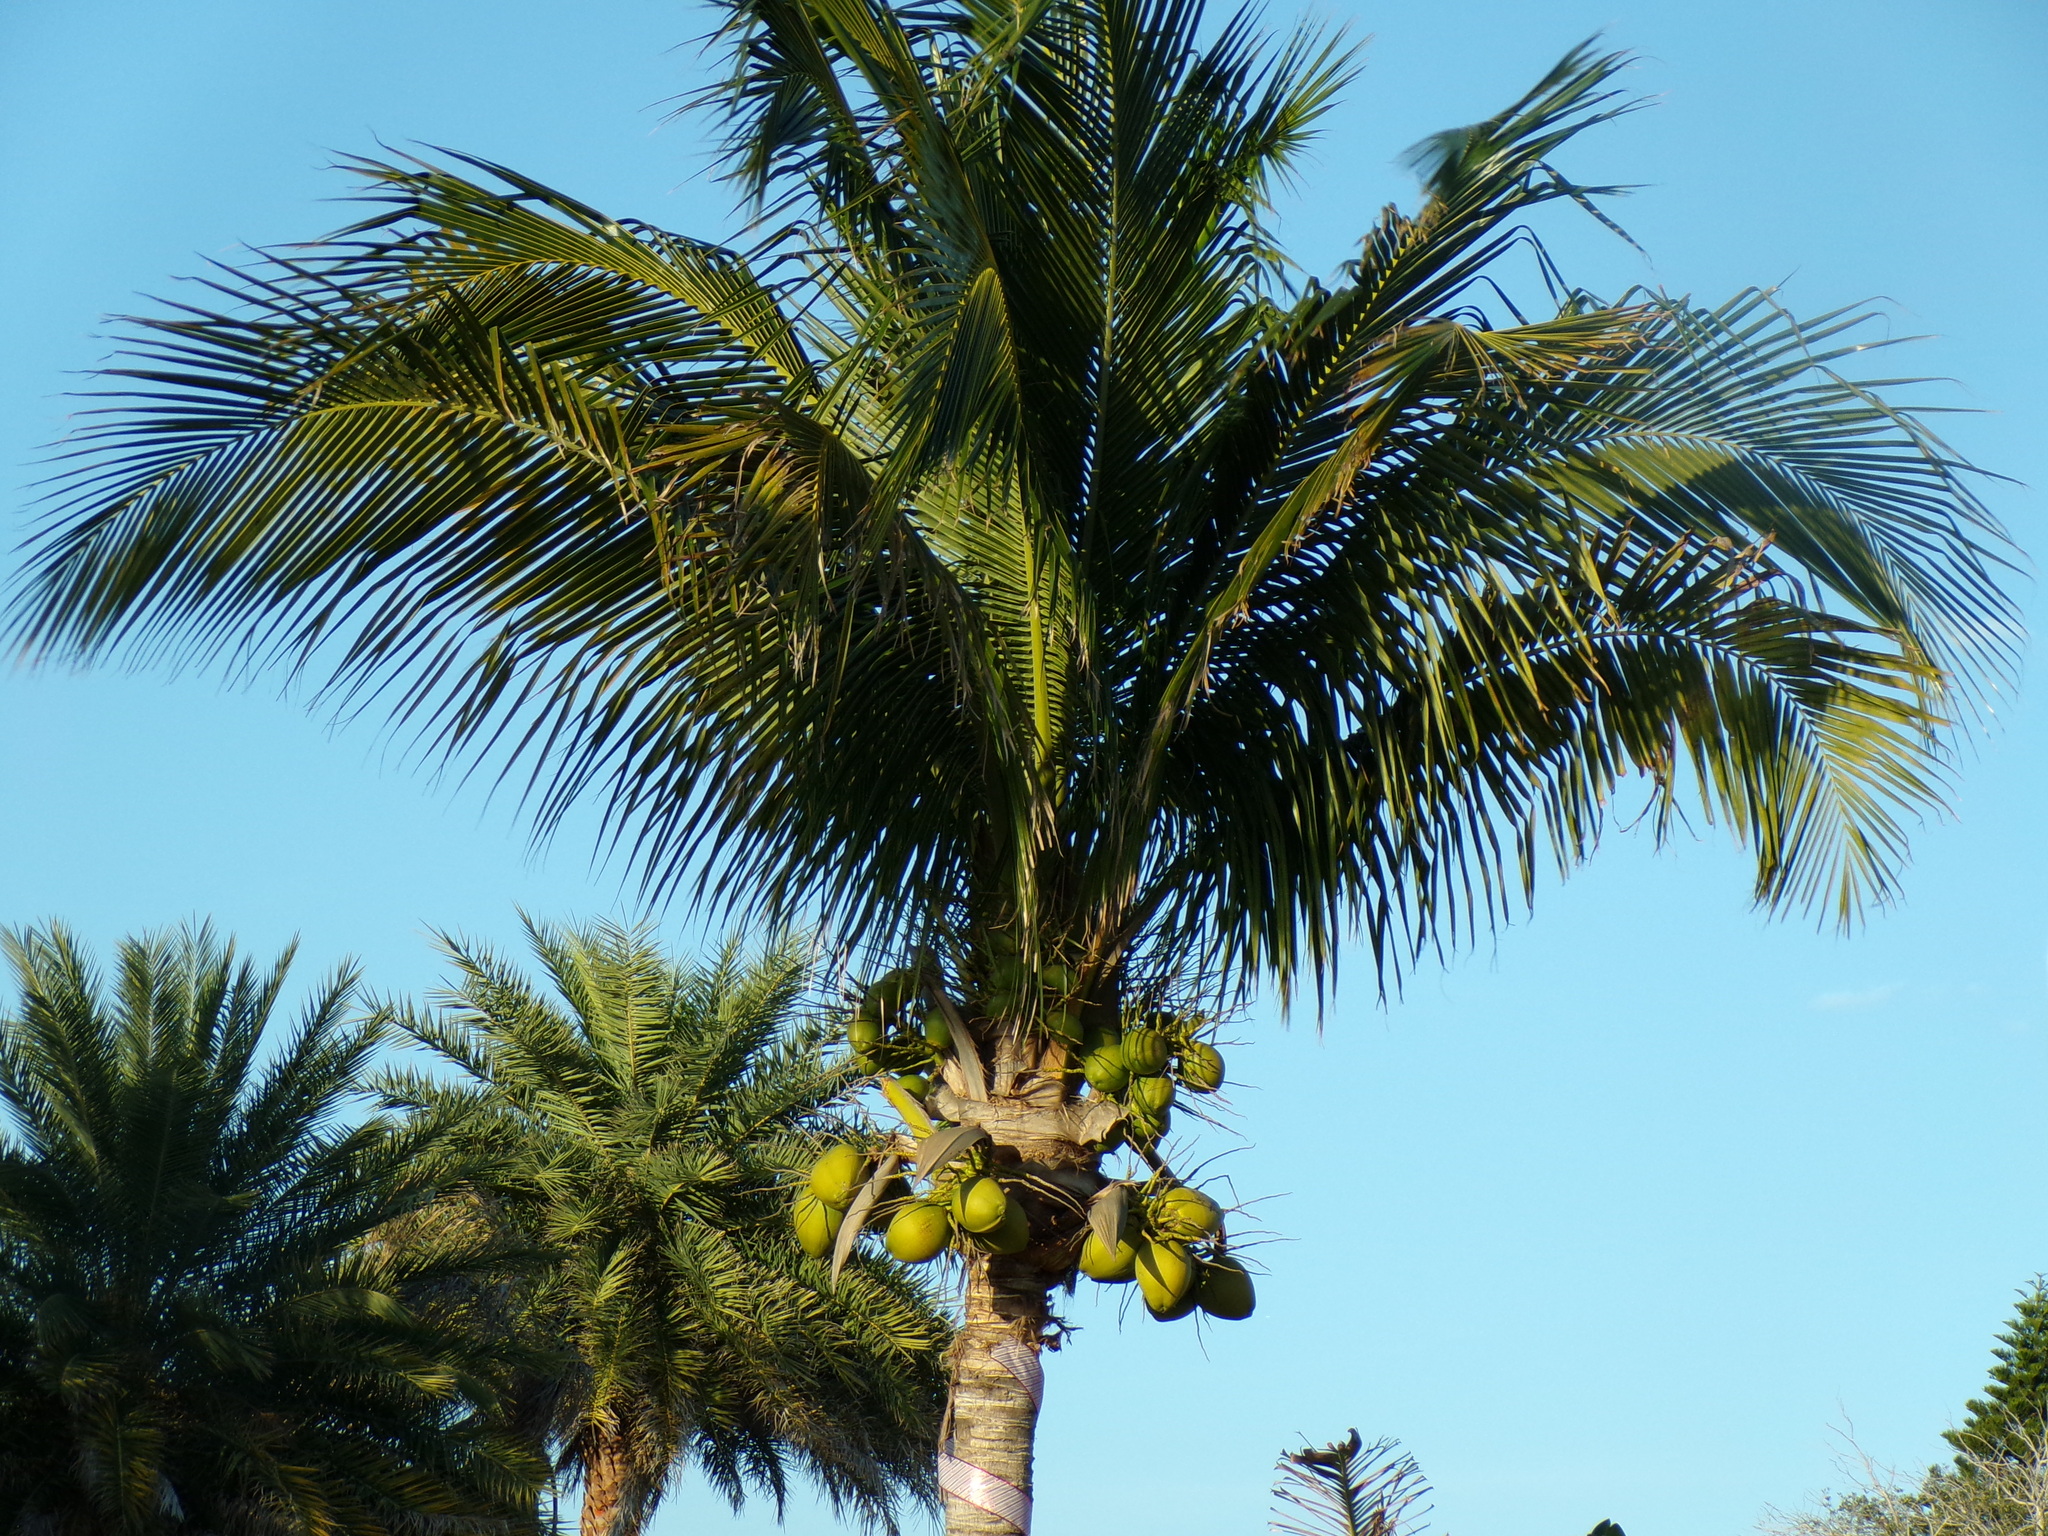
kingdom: Plantae
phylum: Tracheophyta
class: Liliopsida
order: Arecales
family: Arecaceae
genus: Cocos
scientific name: Cocos nucifera
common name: Coconut palm
